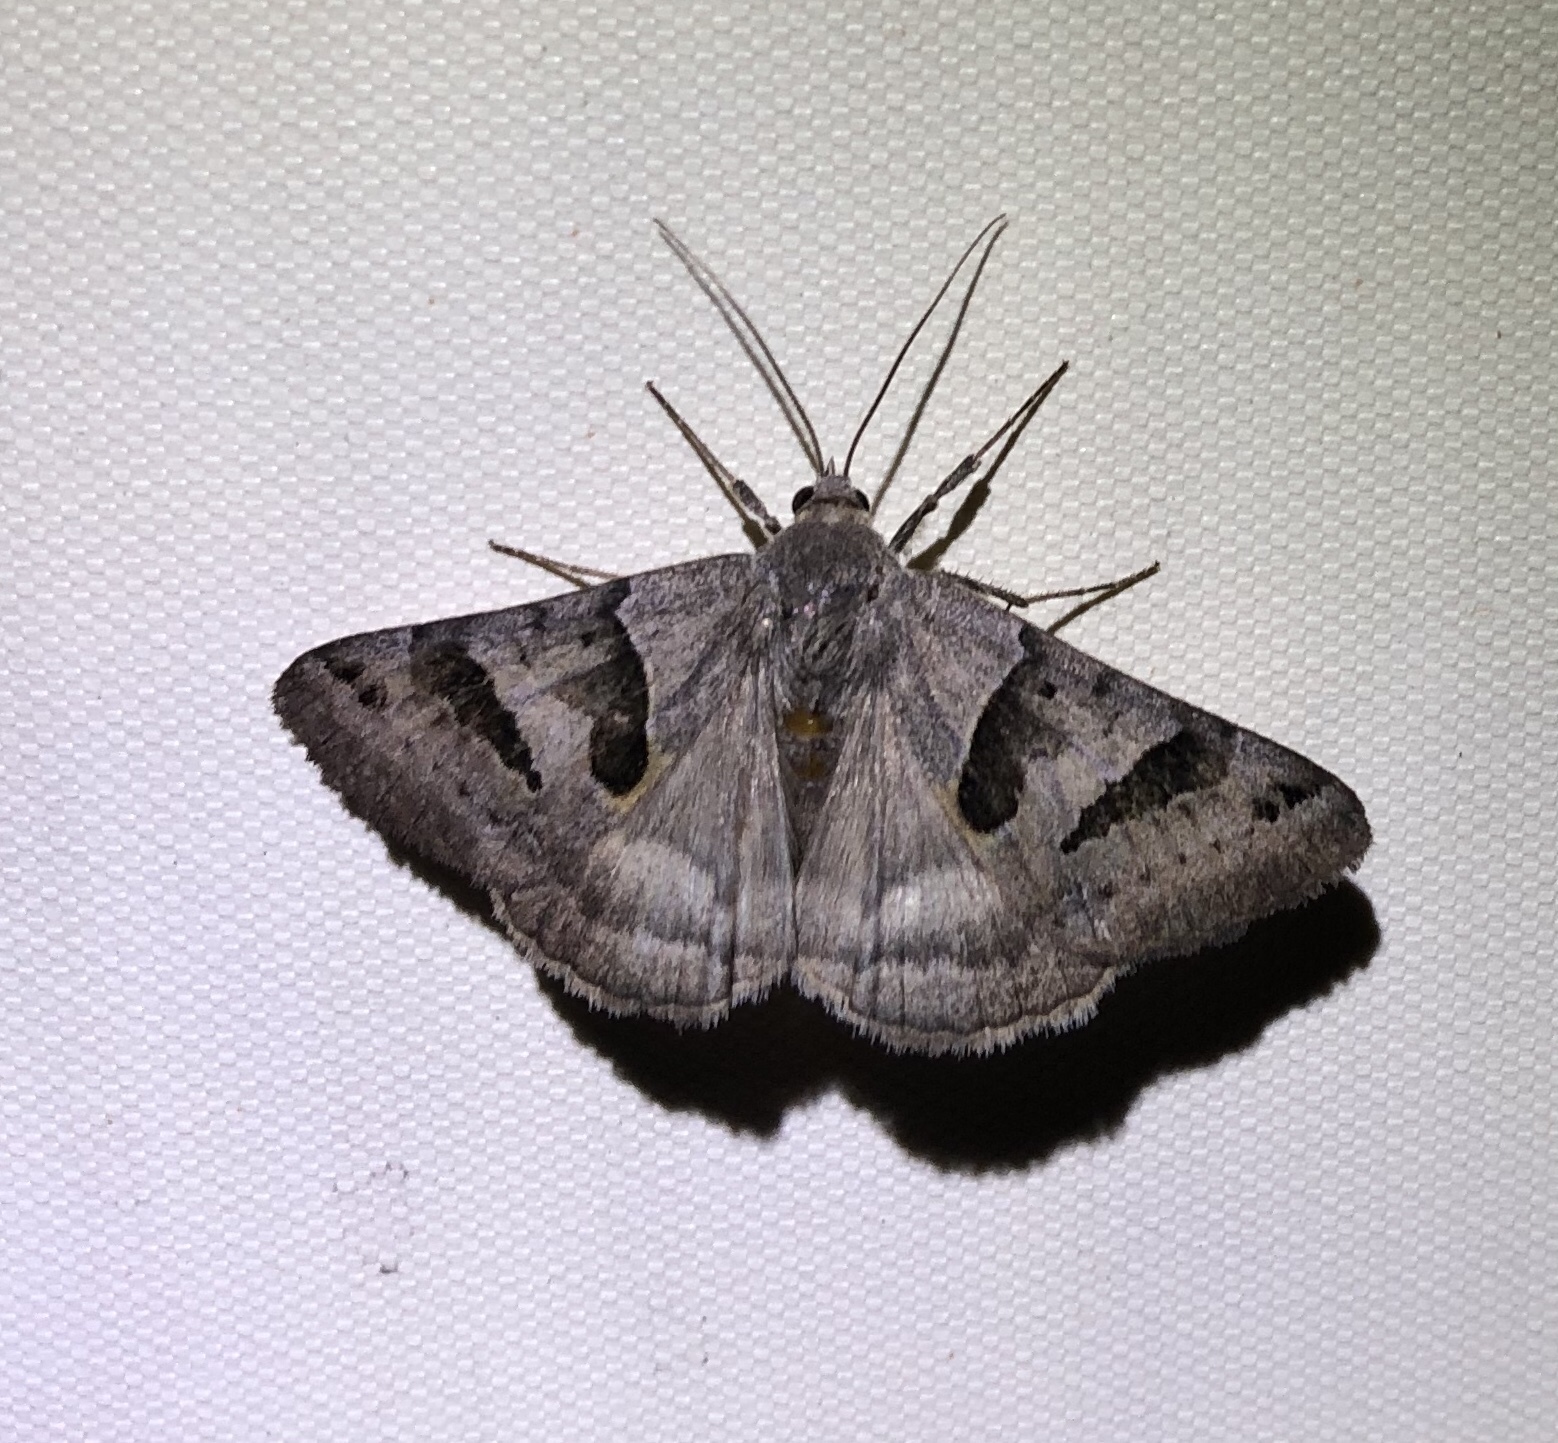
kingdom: Animalia
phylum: Arthropoda
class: Insecta
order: Lepidoptera
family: Erebidae
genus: Caenurgina
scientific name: Caenurgina erechtea
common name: Forage looper moth
